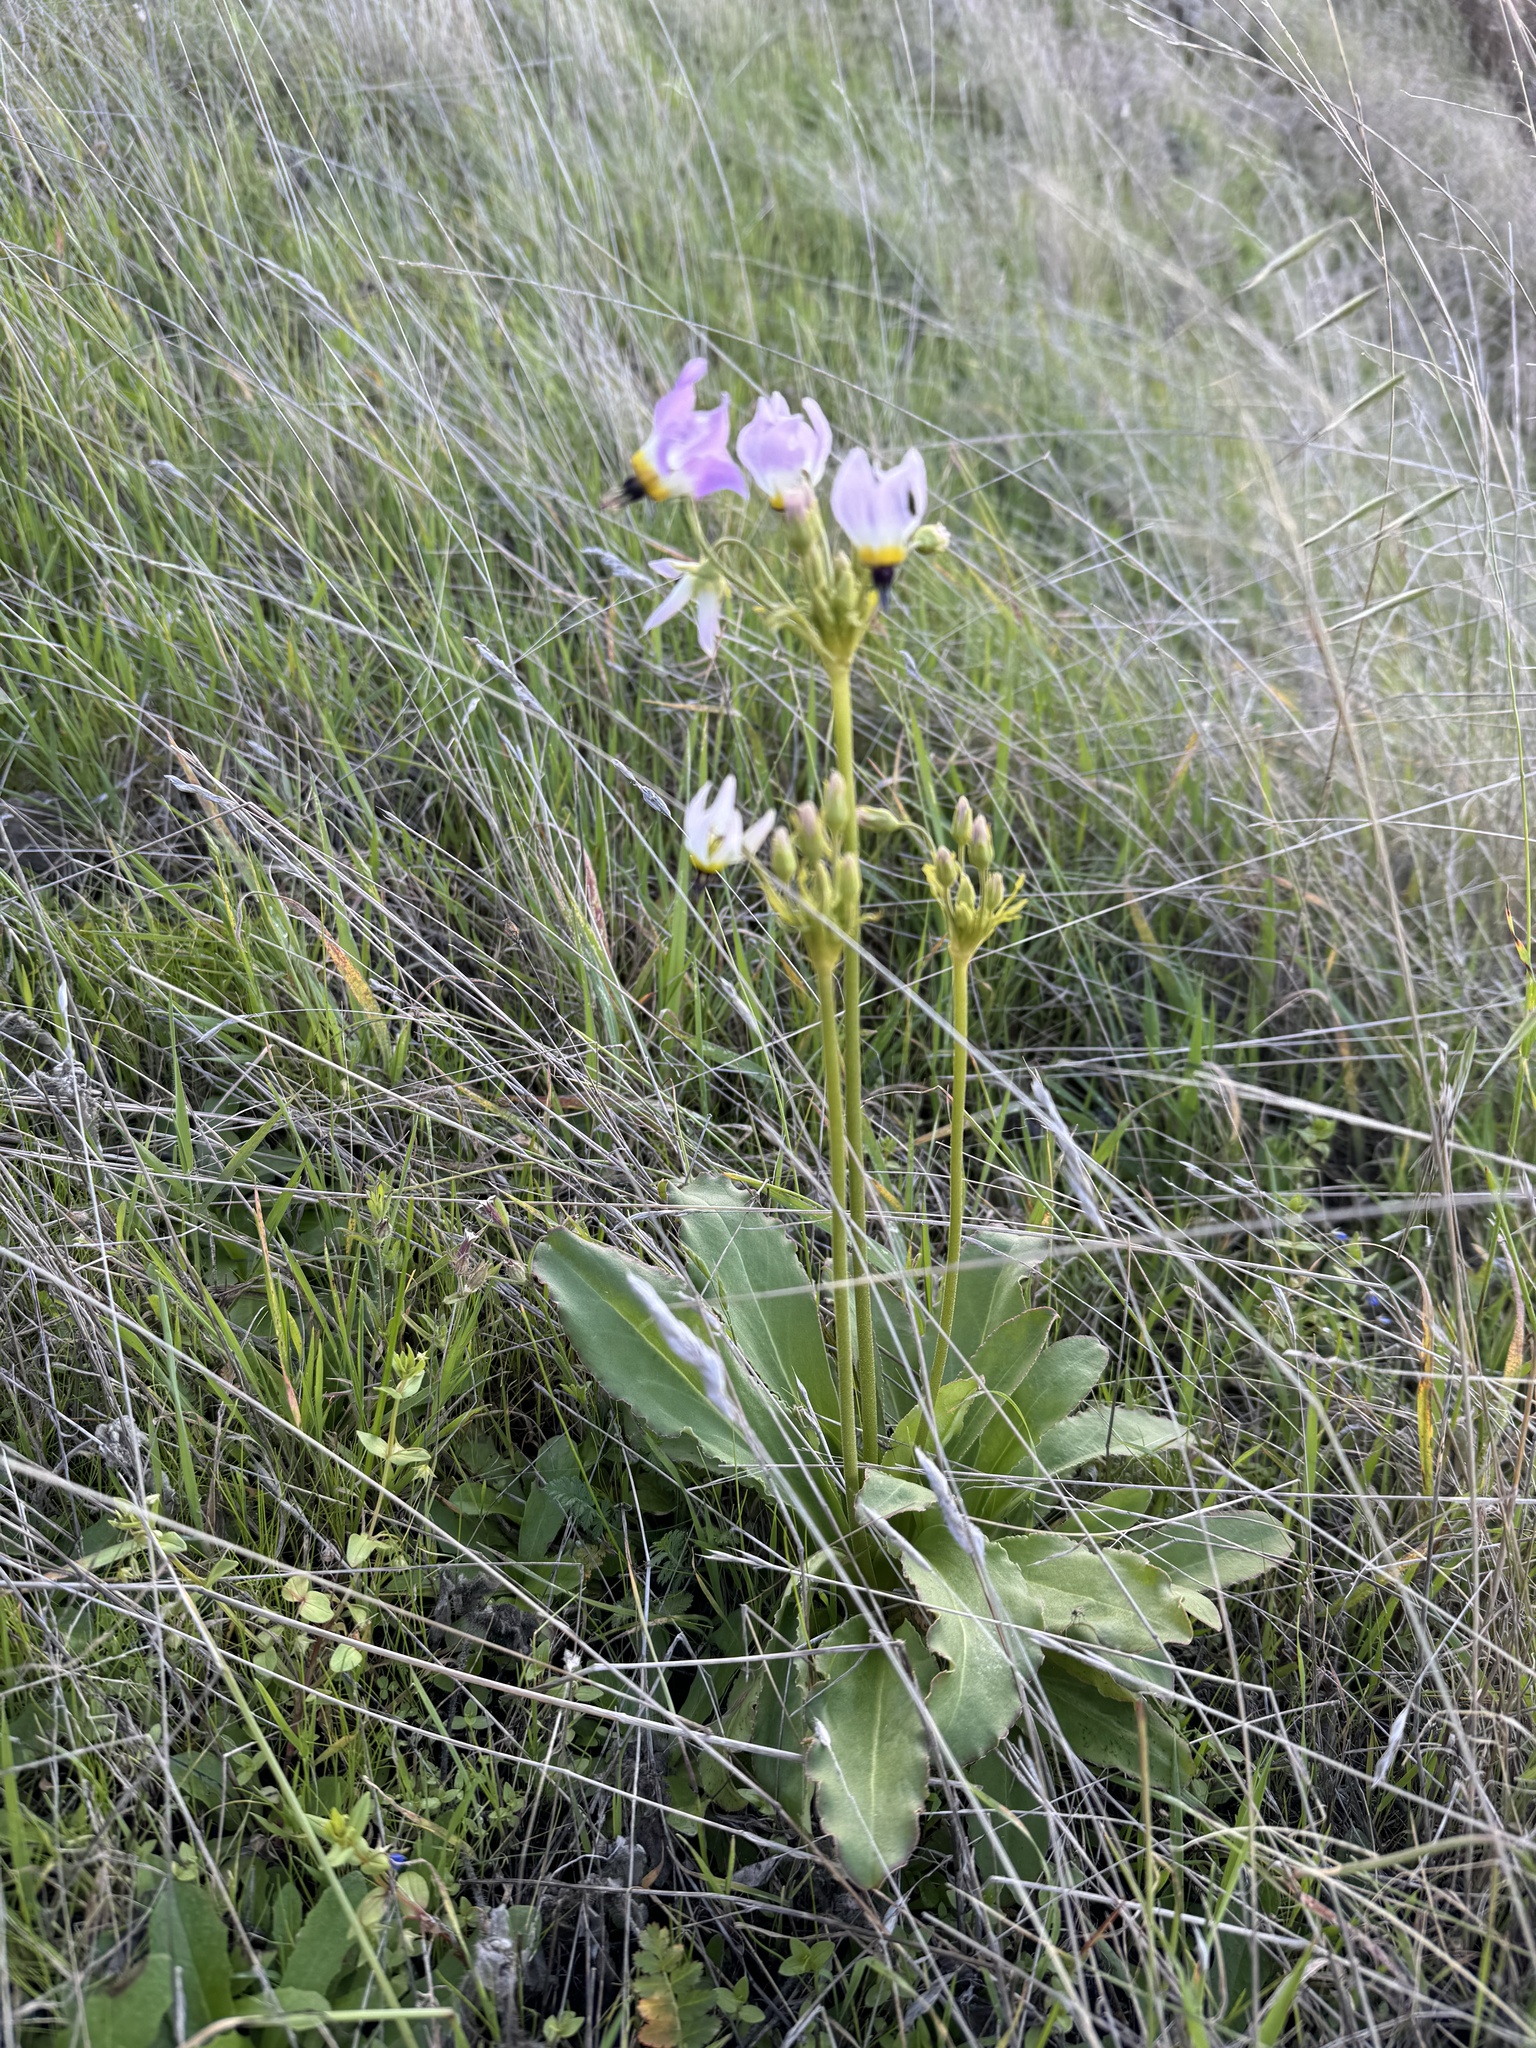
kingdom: Plantae
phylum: Tracheophyta
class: Magnoliopsida
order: Ericales
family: Primulaceae
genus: Dodecatheon
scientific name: Dodecatheon clevelandii
